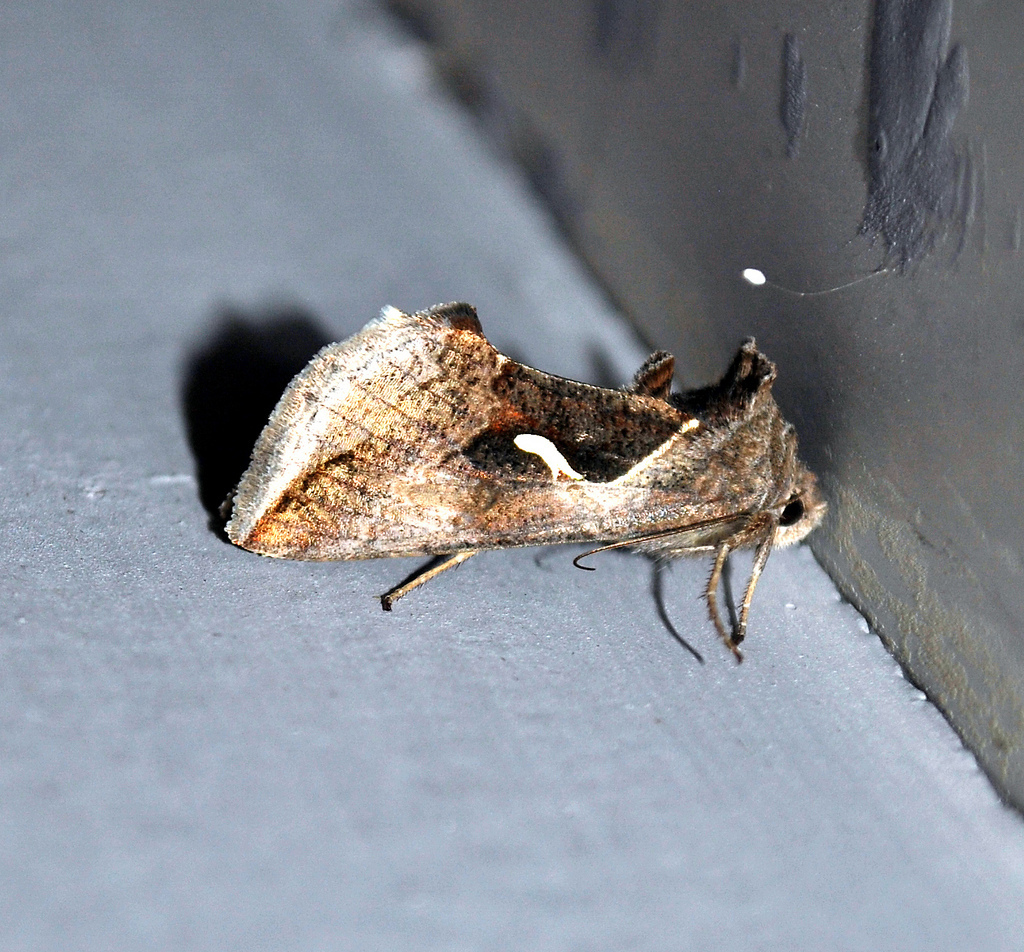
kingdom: Animalia
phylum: Arthropoda
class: Insecta
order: Lepidoptera
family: Noctuidae
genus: Anagrapha
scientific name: Anagrapha falcifera
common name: Celery looper
